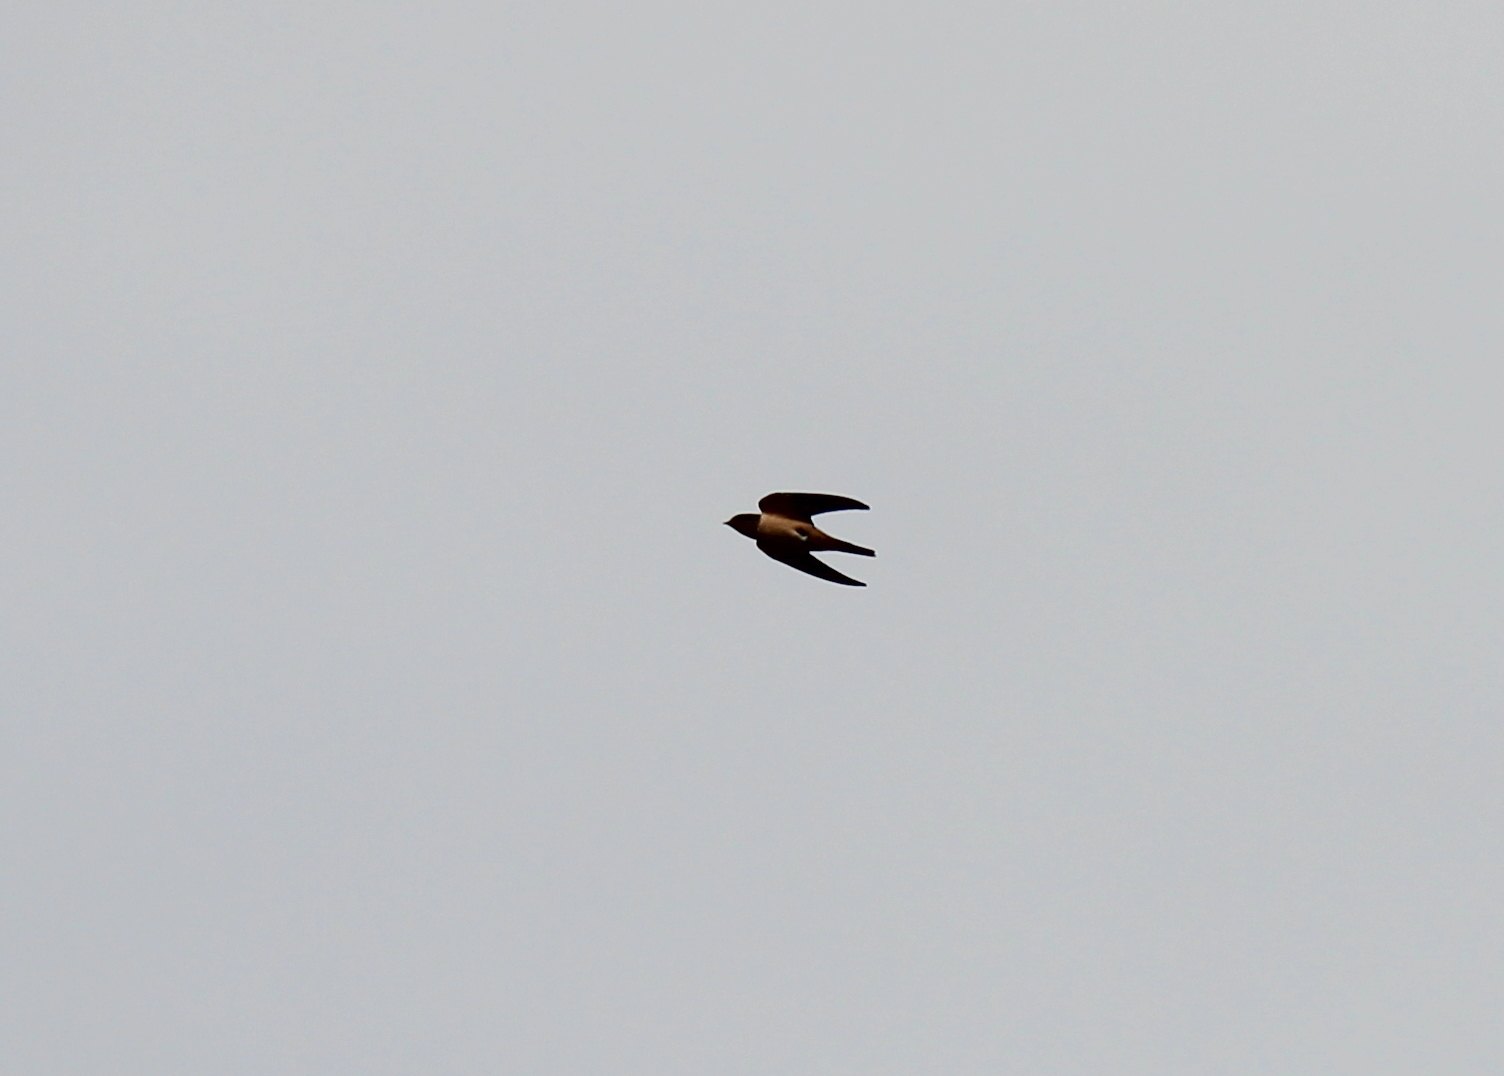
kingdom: Animalia
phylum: Chordata
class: Aves
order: Passeriformes
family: Hirundinidae
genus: Hirundo
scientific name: Hirundo rustica
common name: Barn swallow
